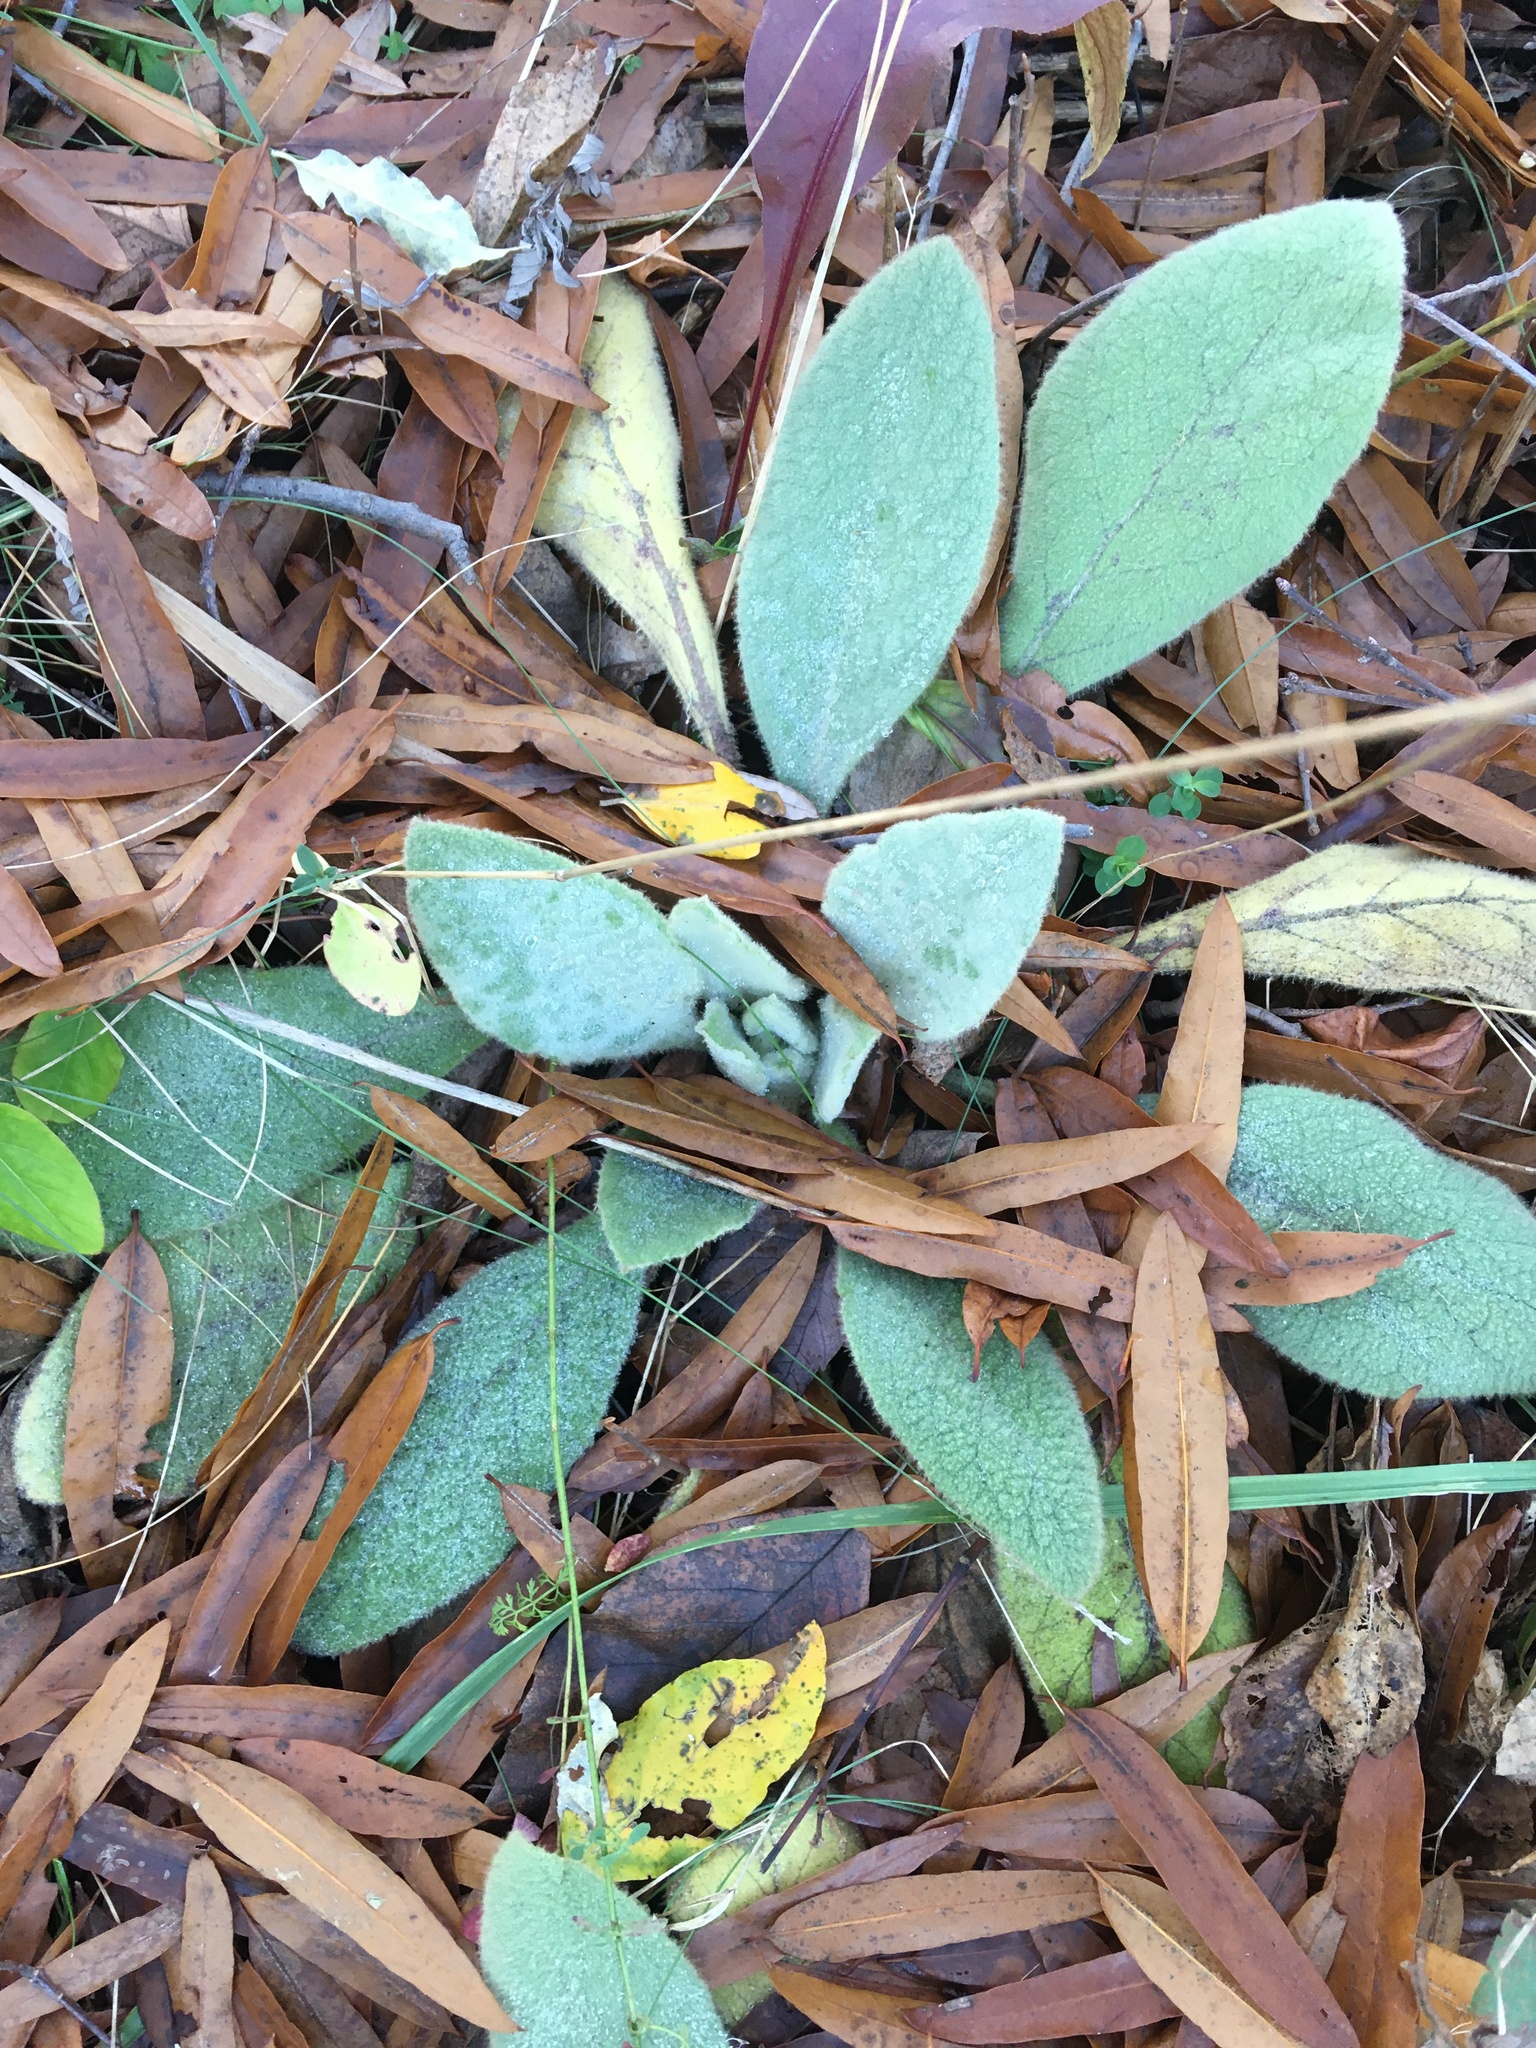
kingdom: Plantae
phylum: Tracheophyta
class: Magnoliopsida
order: Lamiales
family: Scrophulariaceae
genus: Verbascum
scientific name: Verbascum thapsus
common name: Common mullein
